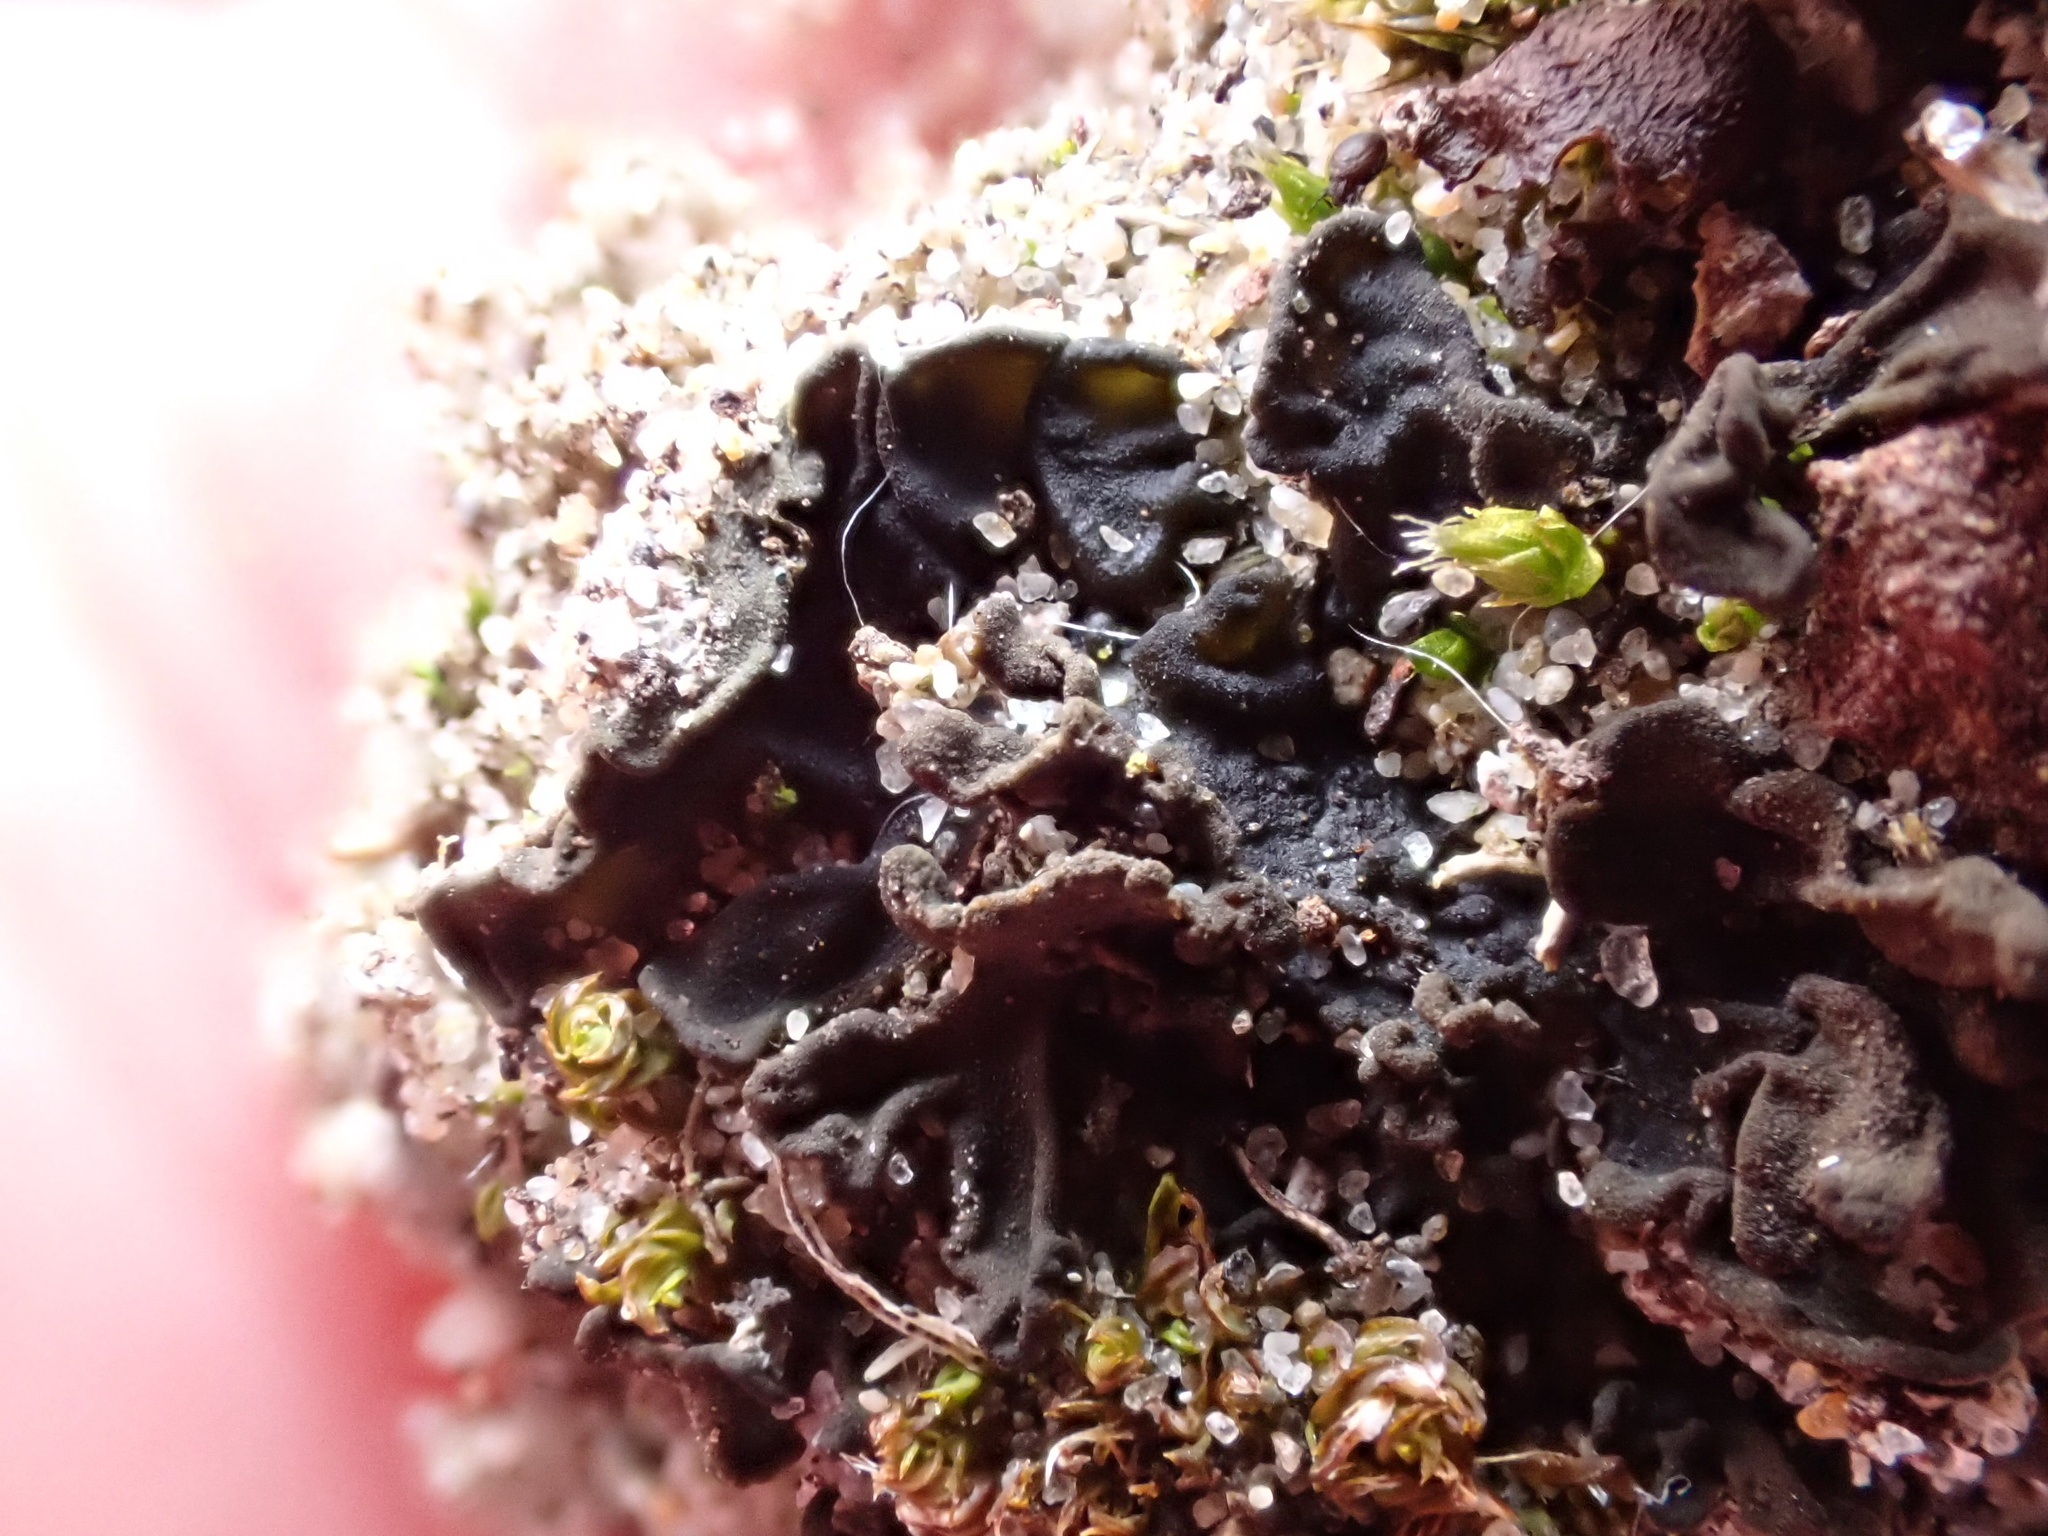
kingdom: Fungi
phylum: Ascomycota
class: Lecanoromycetes
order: Peltigerales
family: Collemataceae
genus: Enchylium
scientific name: Enchylium tenax
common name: Jelly lichen
